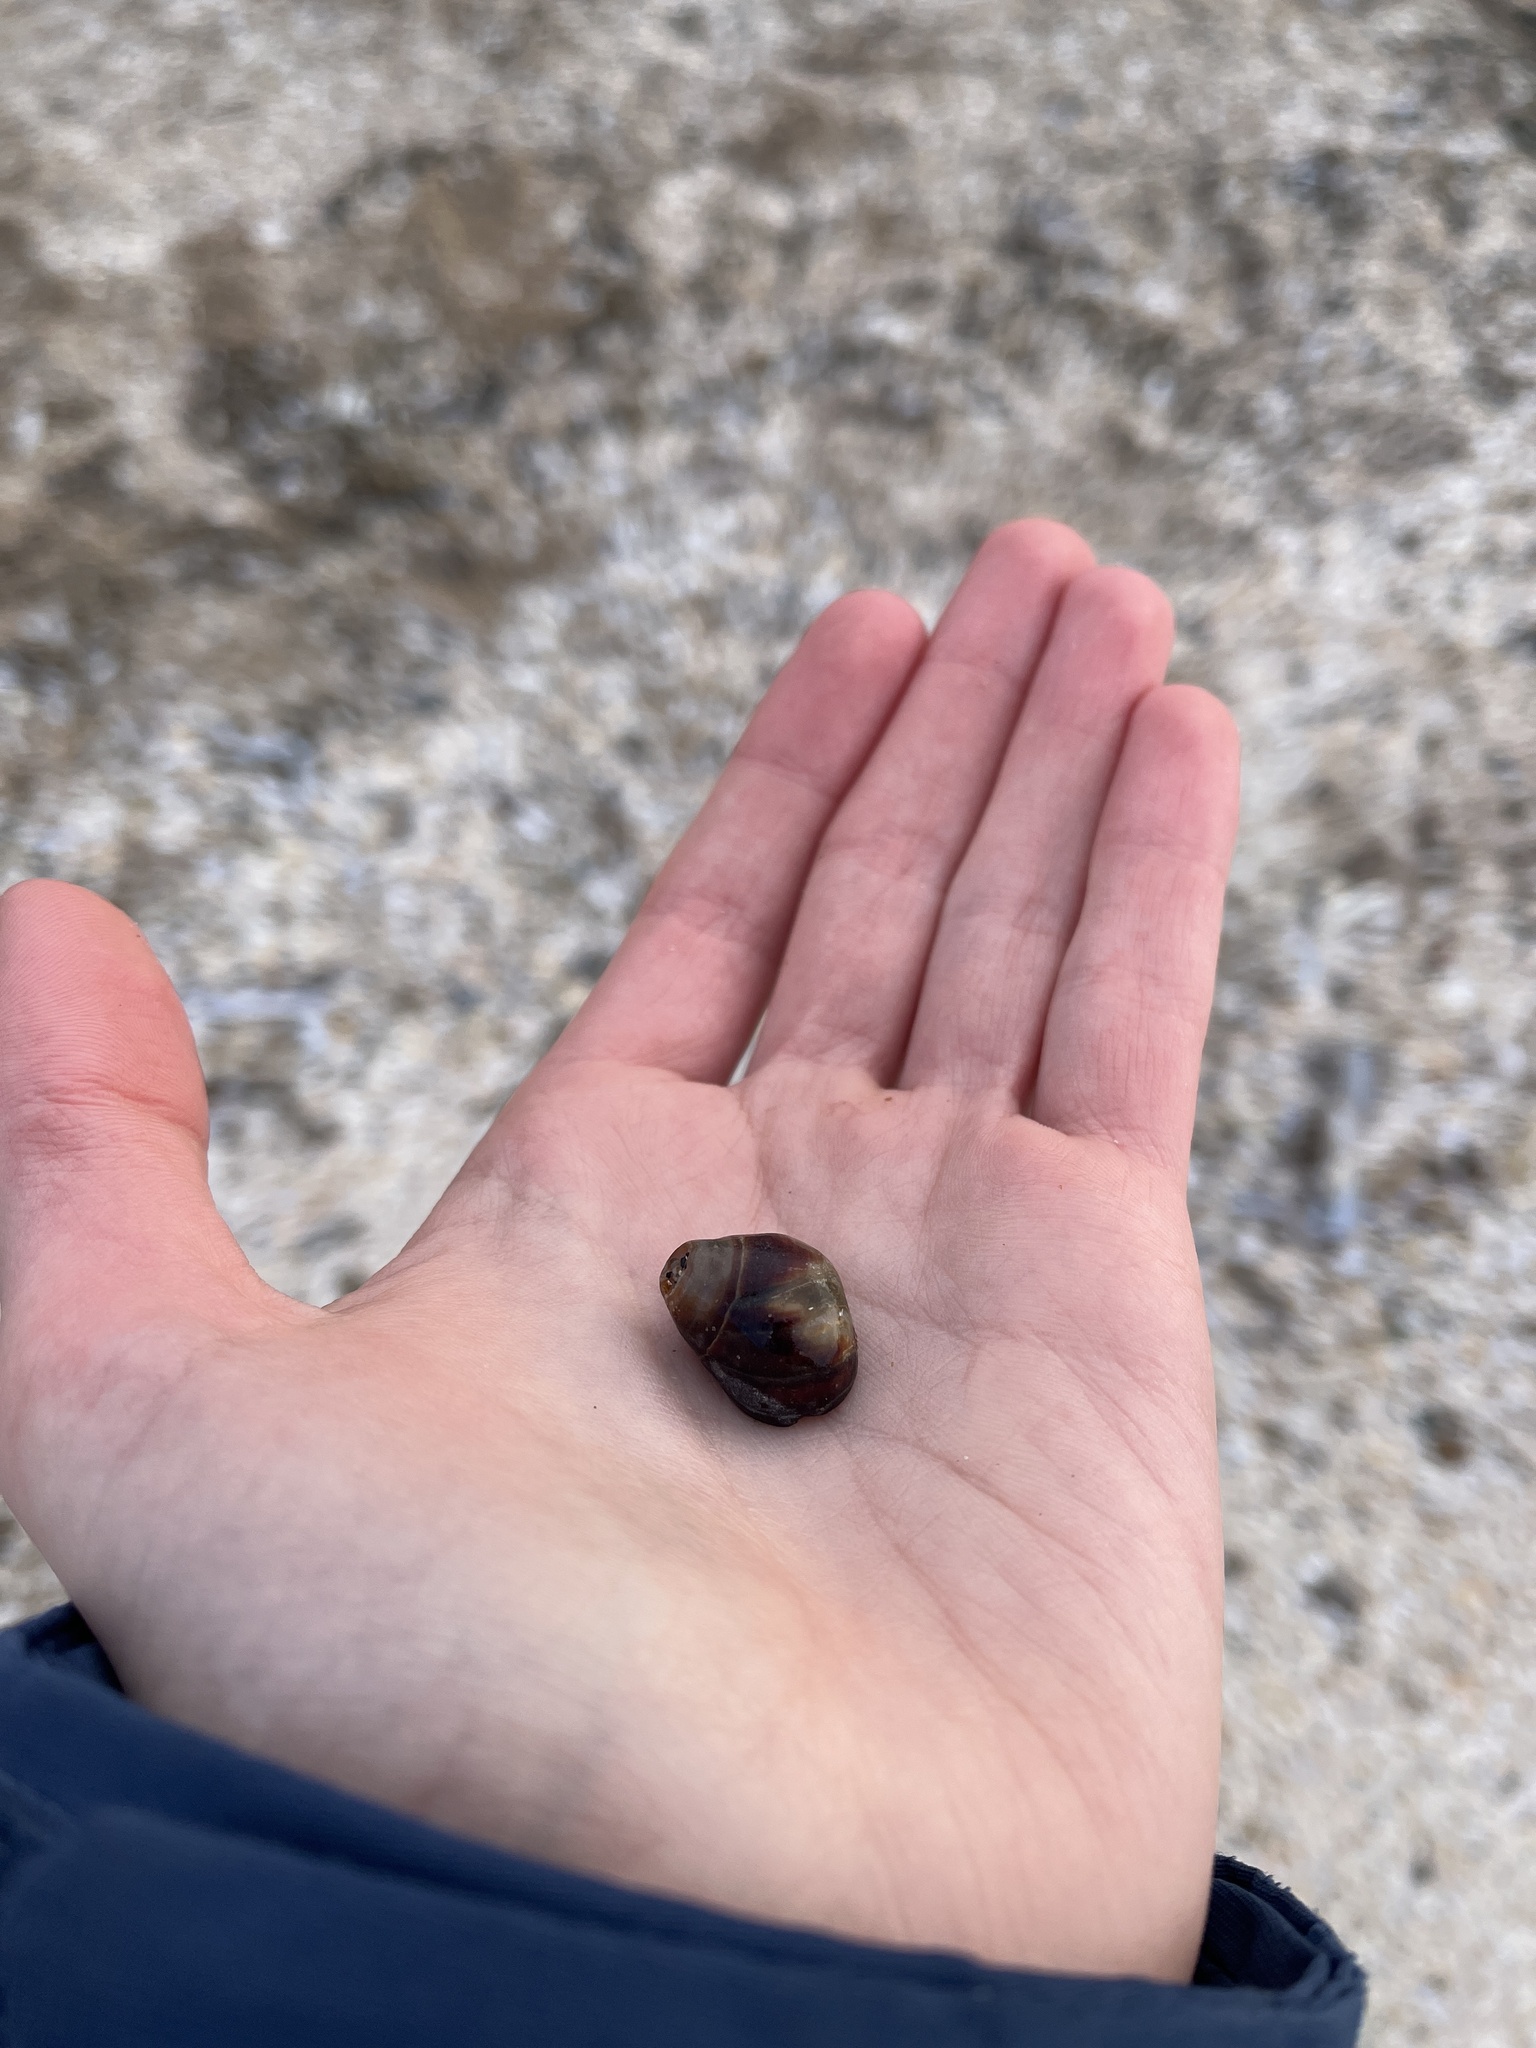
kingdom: Animalia
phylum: Mollusca
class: Gastropoda
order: Littorinimorpha
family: Littorinidae
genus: Littorina
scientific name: Littorina littorea
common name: Common periwinkle
